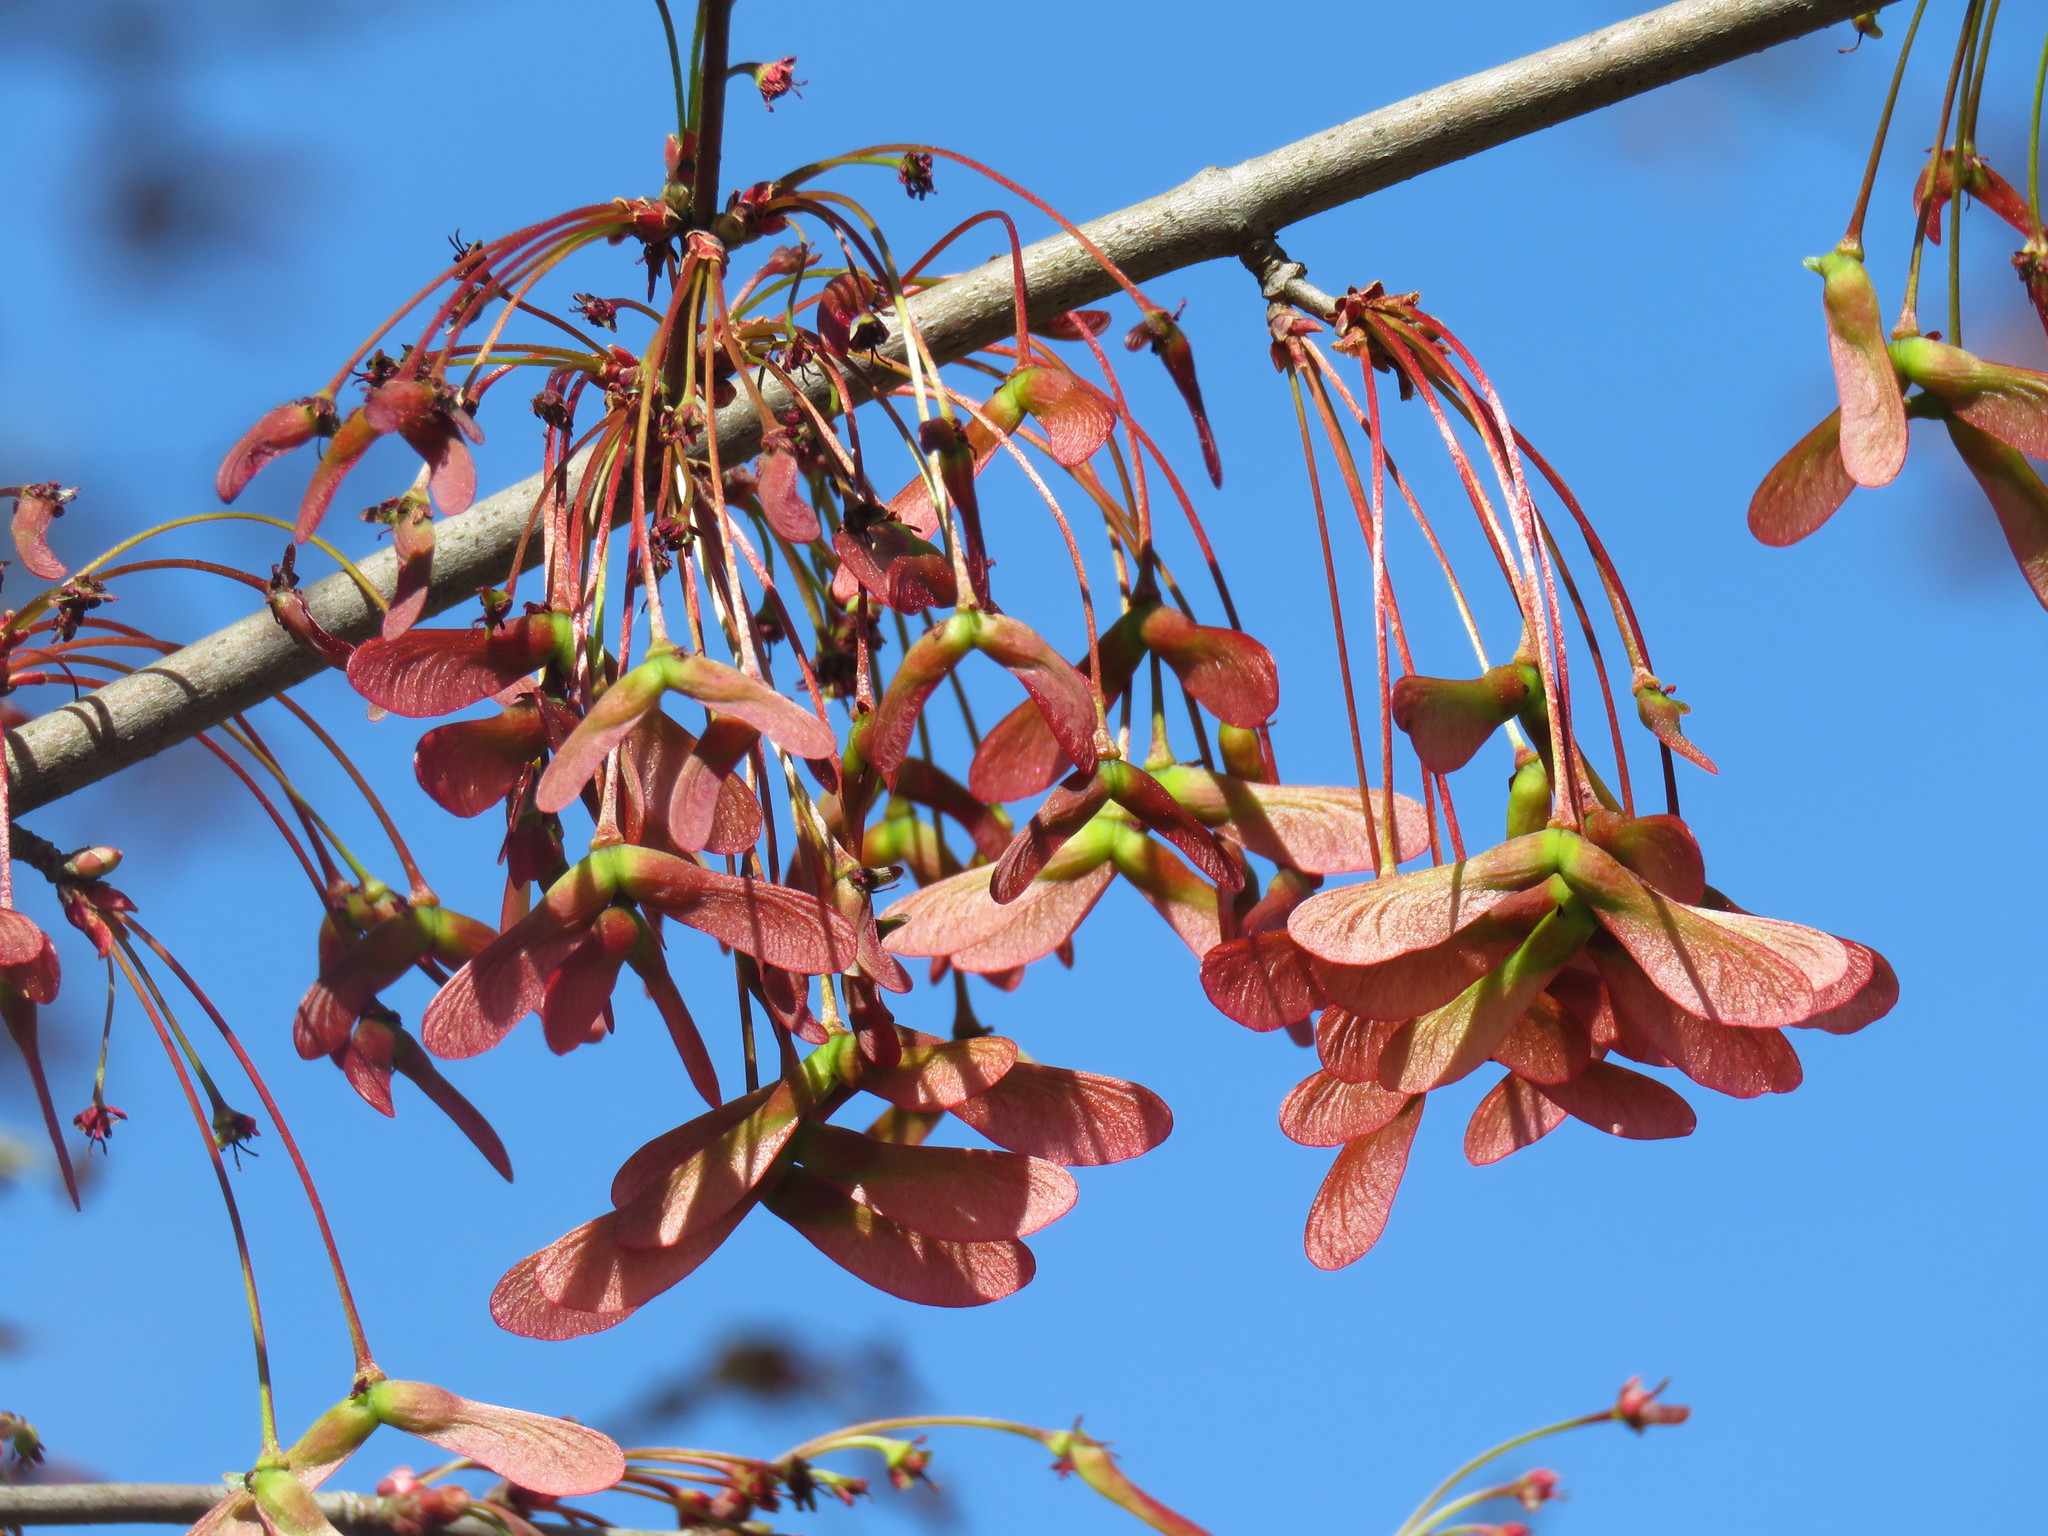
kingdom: Plantae
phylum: Tracheophyta
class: Magnoliopsida
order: Sapindales
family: Sapindaceae
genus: Acer
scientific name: Acer rubrum
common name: Red maple
